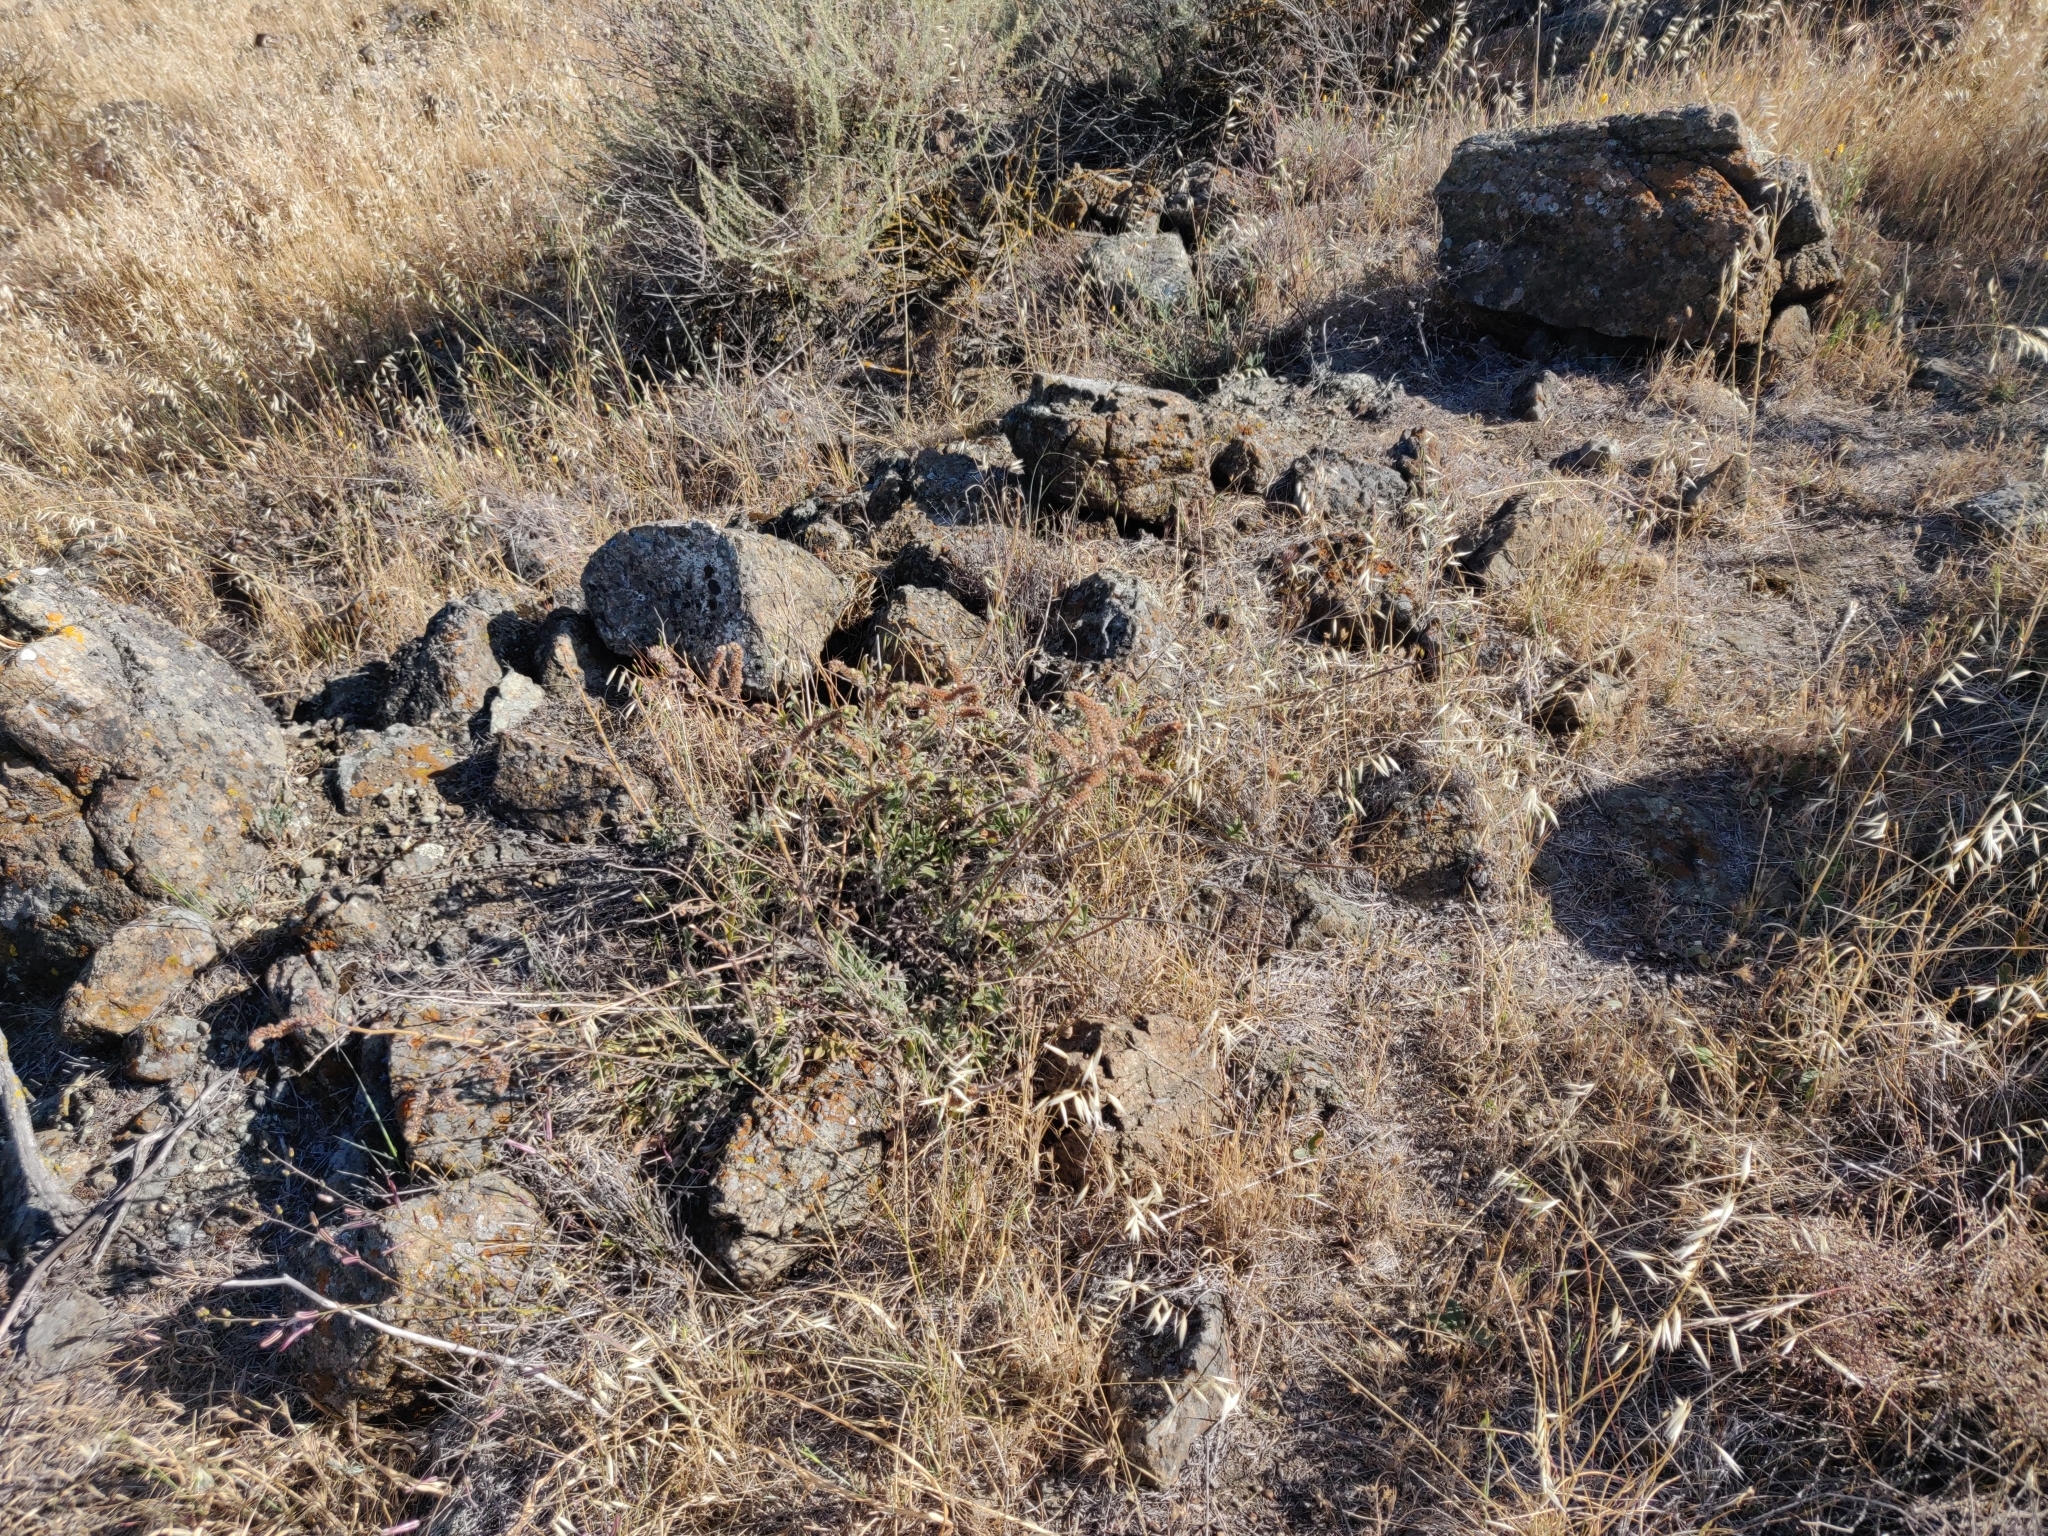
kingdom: Plantae
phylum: Tracheophyta
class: Magnoliopsida
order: Boraginales
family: Hydrophyllaceae
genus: Phacelia
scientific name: Phacelia imbricata
